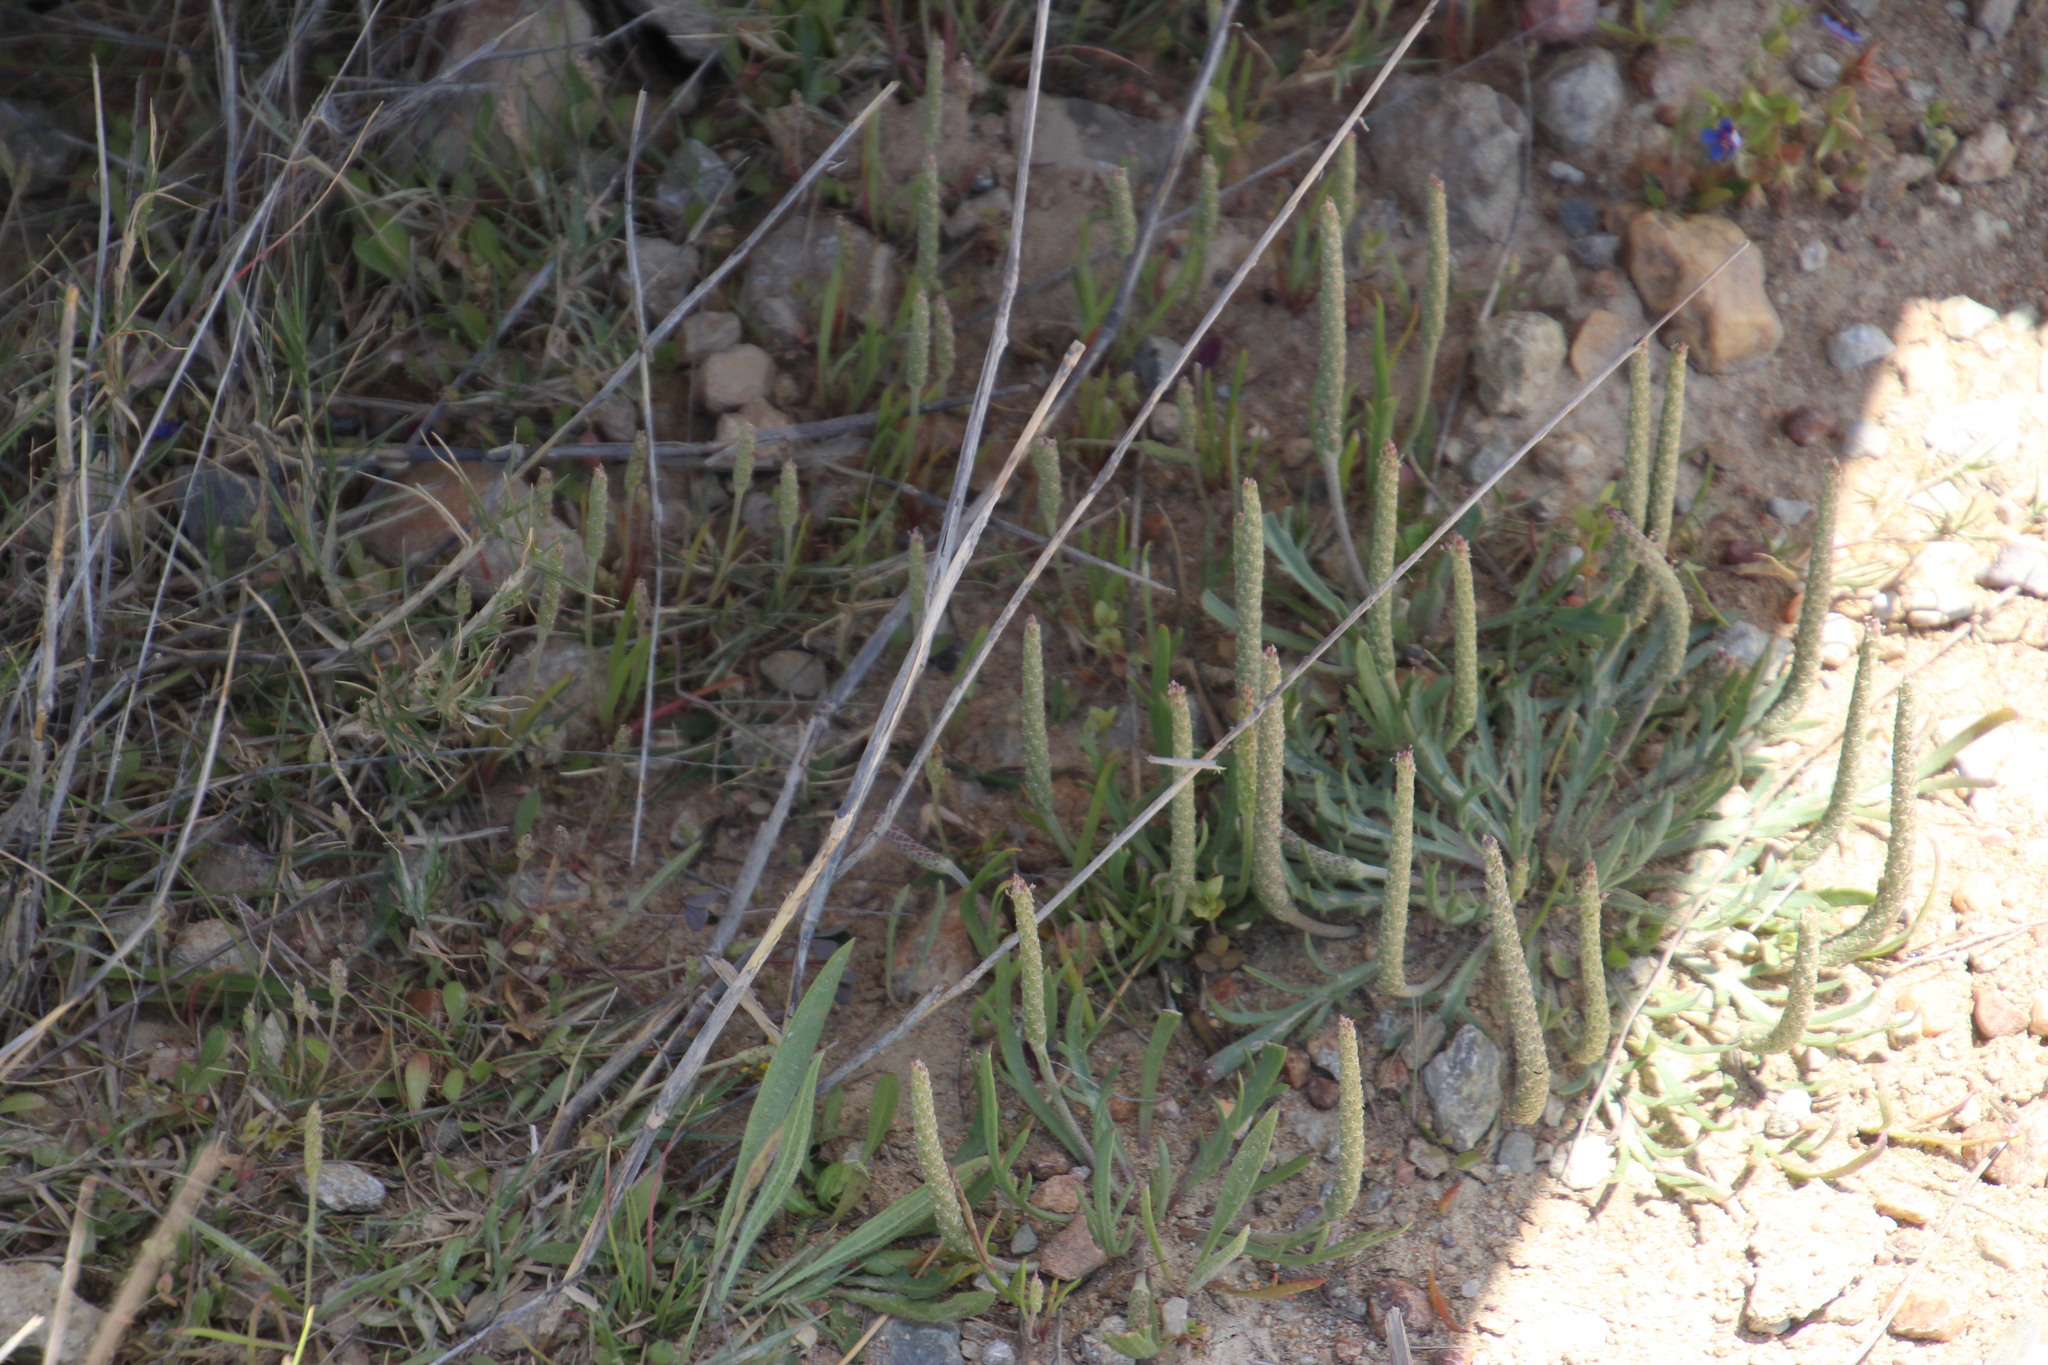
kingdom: Plantae
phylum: Tracheophyta
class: Magnoliopsida
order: Lamiales
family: Plantaginaceae
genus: Plantago
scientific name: Plantago coronopus
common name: Buck's-horn plantain
